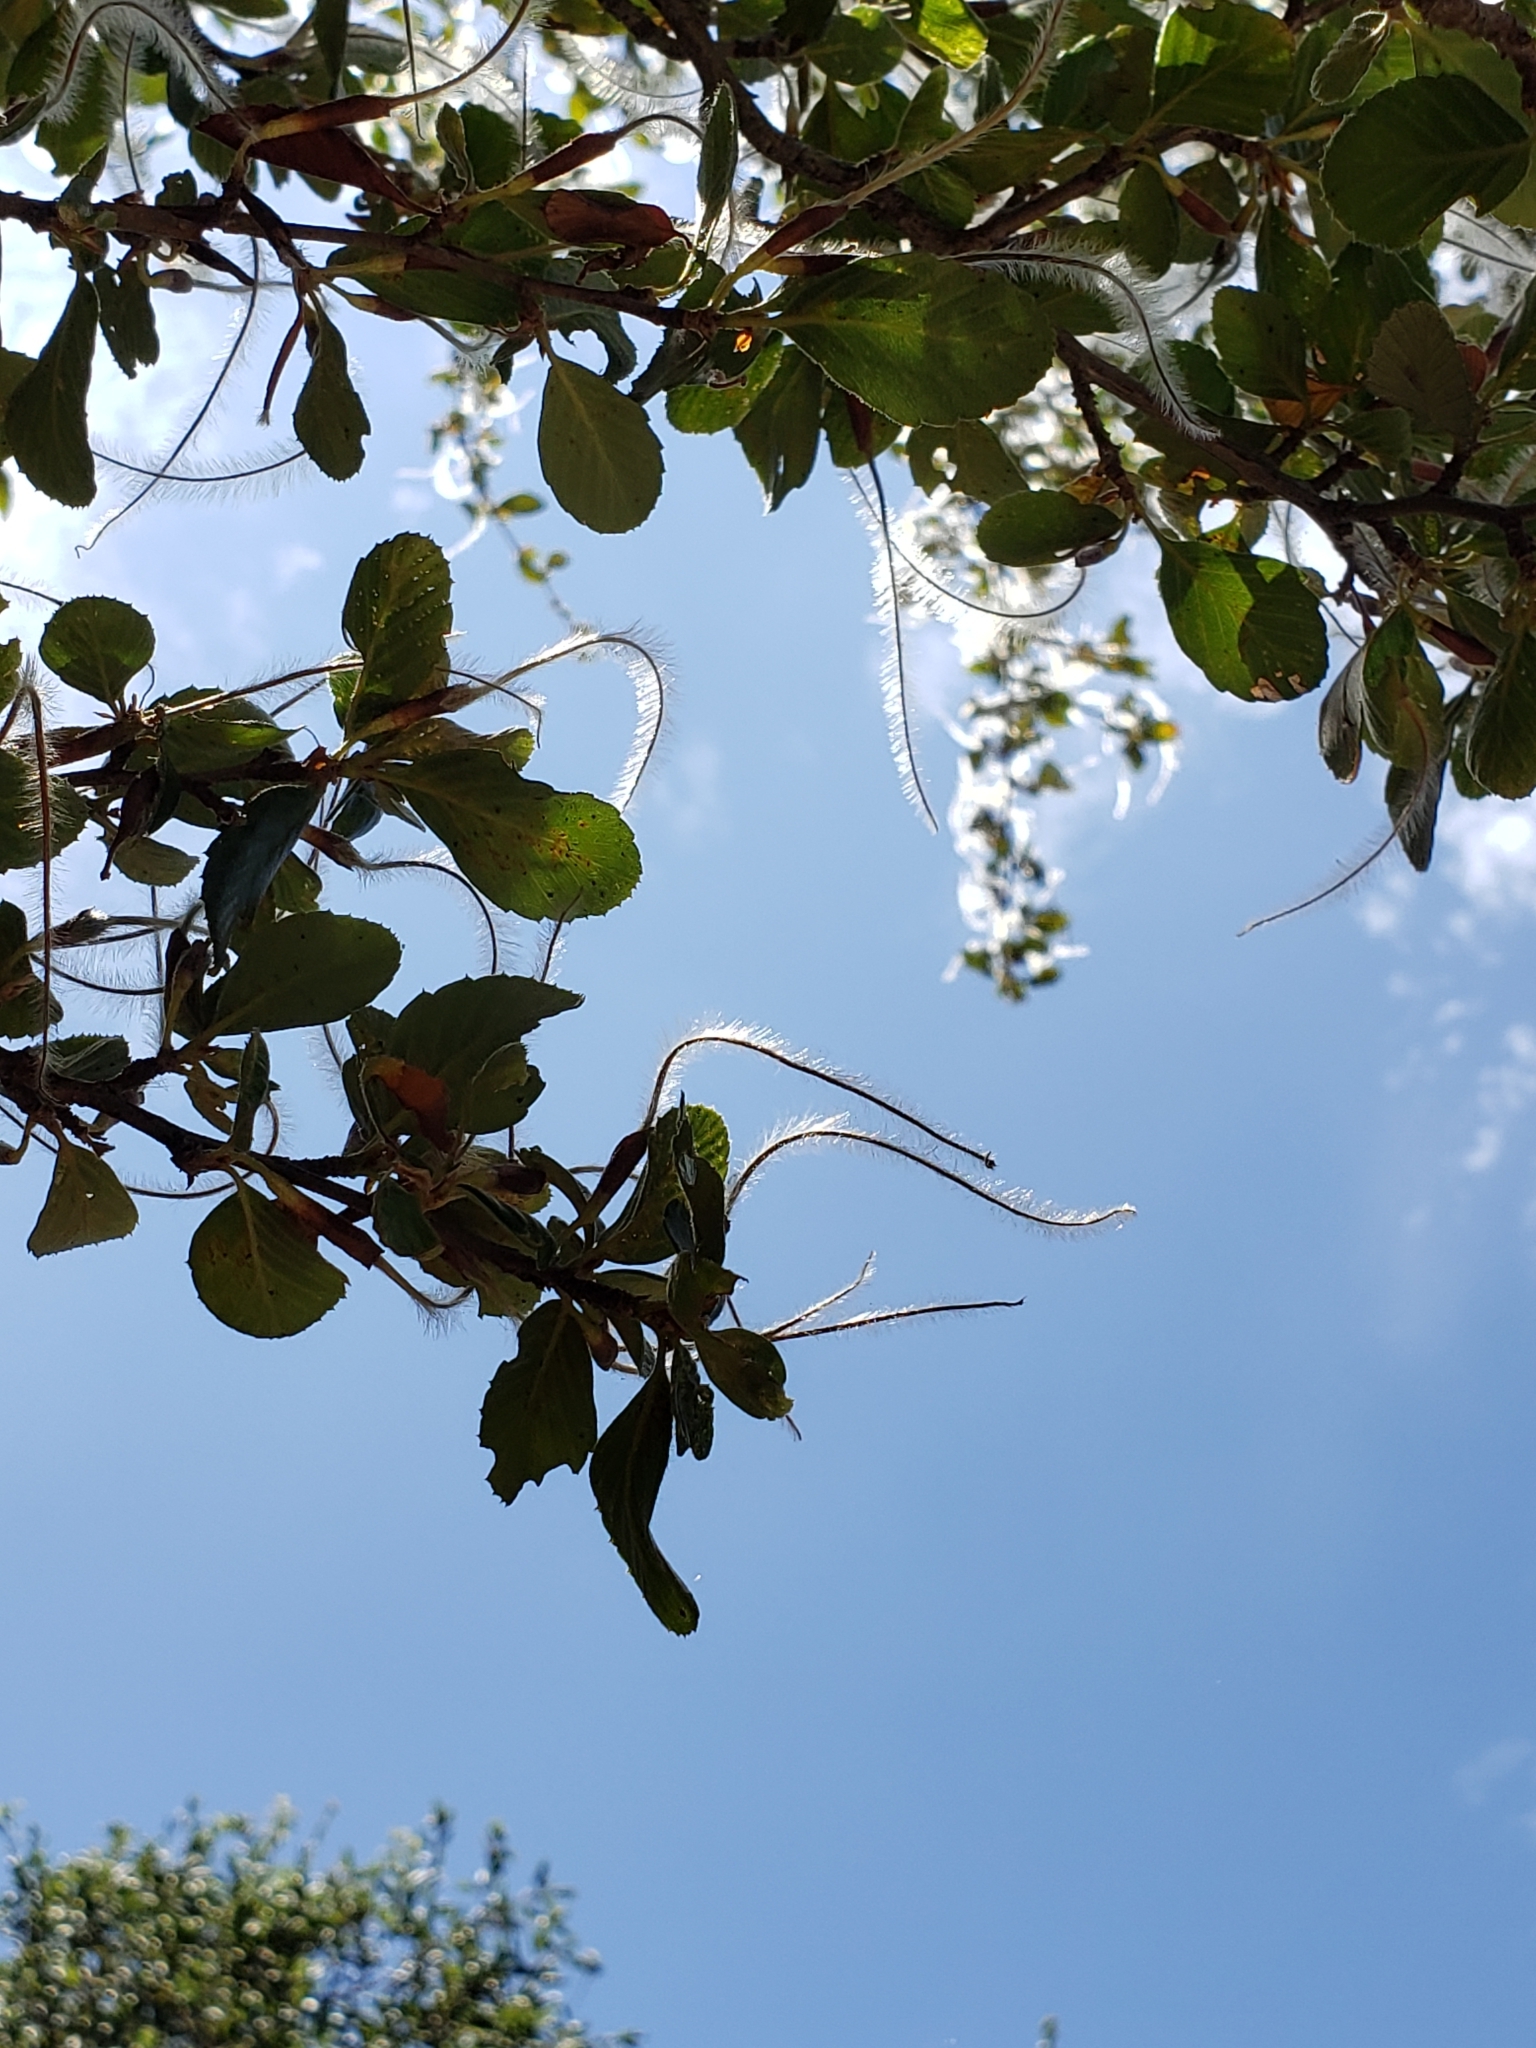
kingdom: Plantae
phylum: Tracheophyta
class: Magnoliopsida
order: Rosales
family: Rosaceae
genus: Cercocarpus
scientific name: Cercocarpus betuloides
